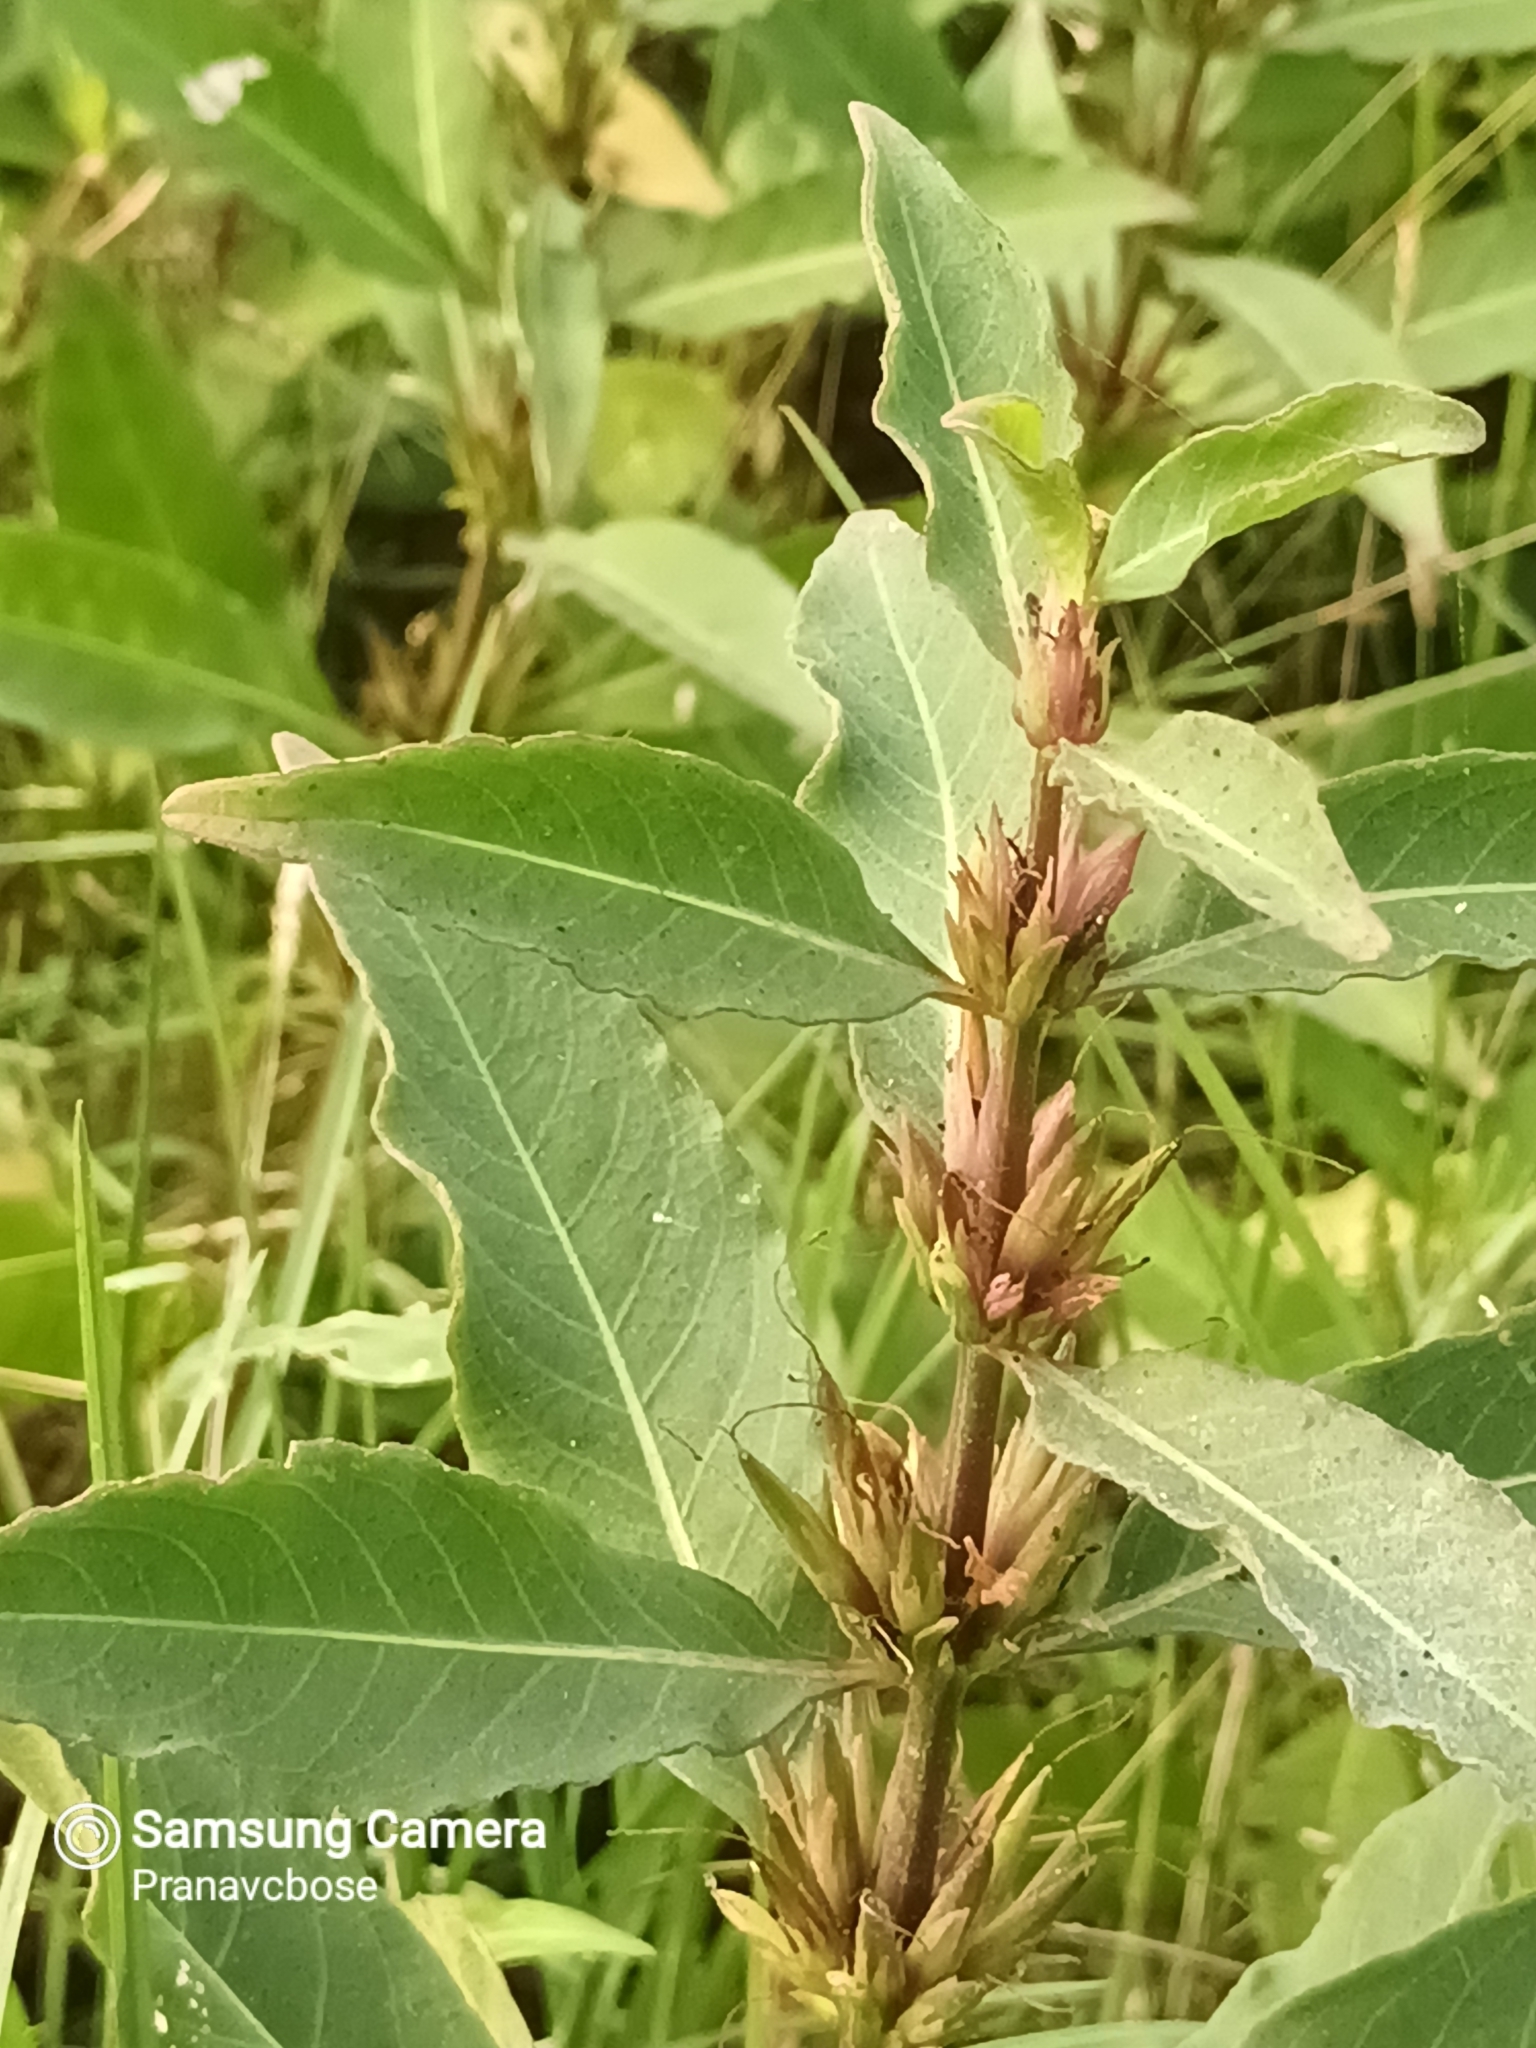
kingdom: Plantae
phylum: Tracheophyta
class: Magnoliopsida
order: Lamiales
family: Acanthaceae
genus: Hygrophila
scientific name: Hygrophila erecta
